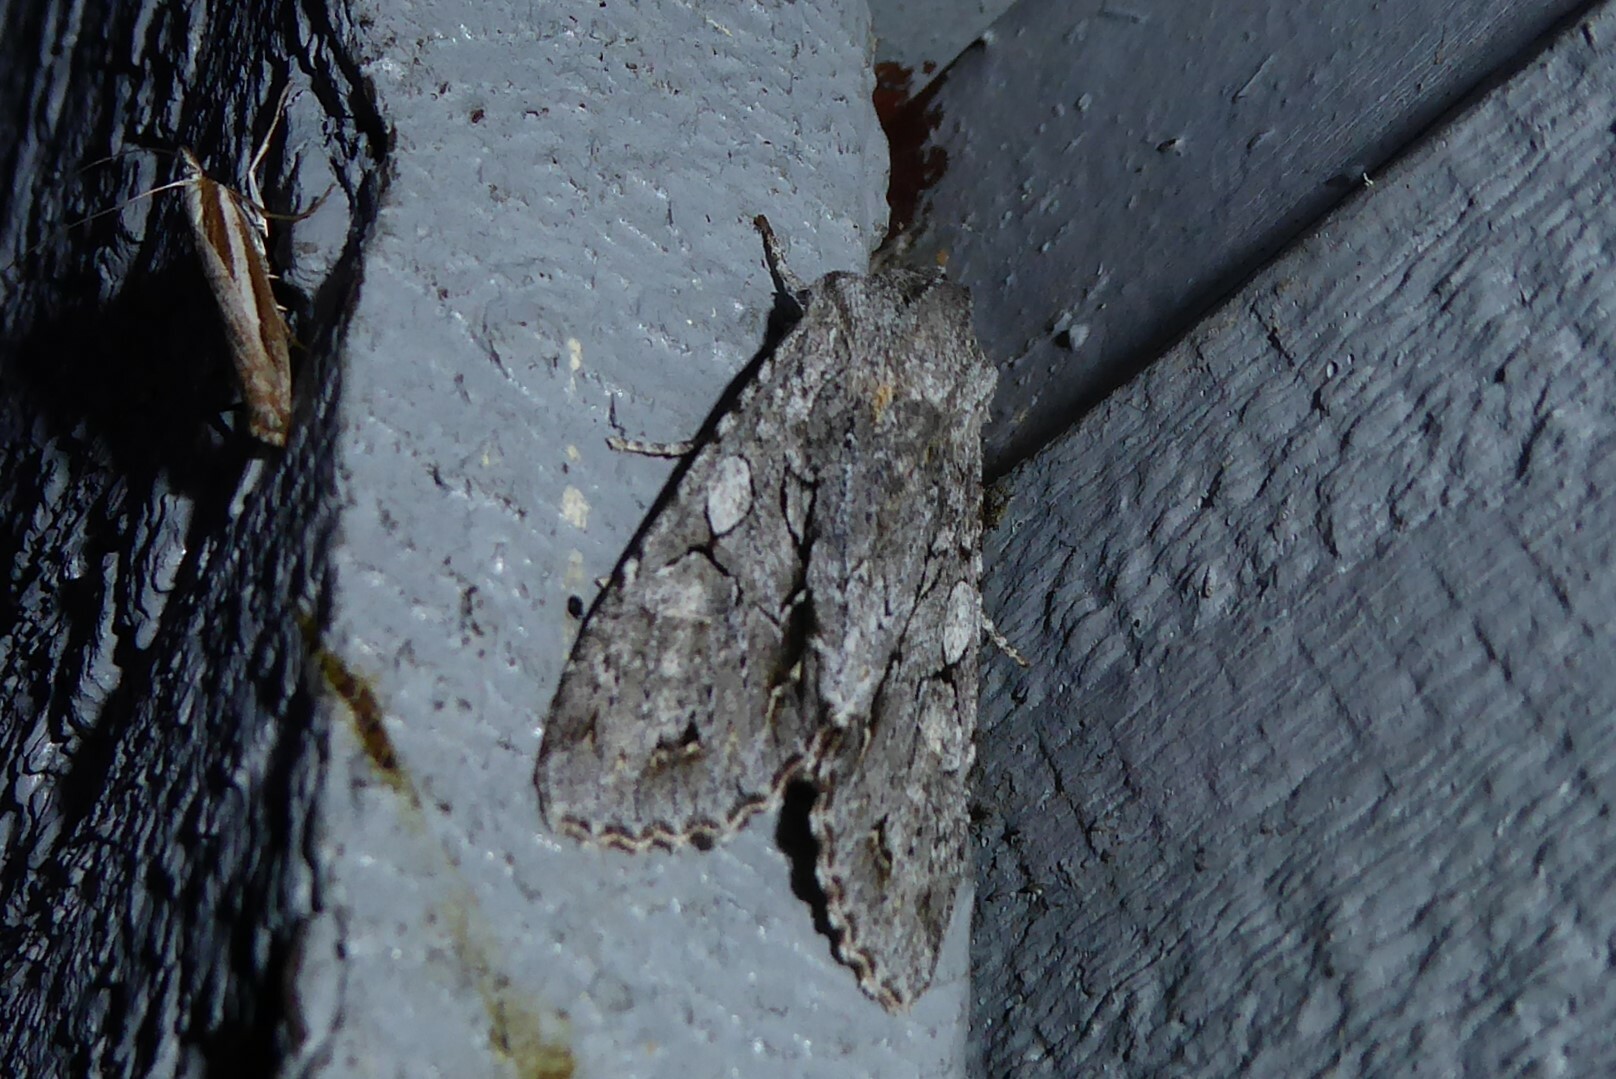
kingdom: Animalia
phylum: Arthropoda
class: Insecta
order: Lepidoptera
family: Noctuidae
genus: Ichneutica
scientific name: Ichneutica
